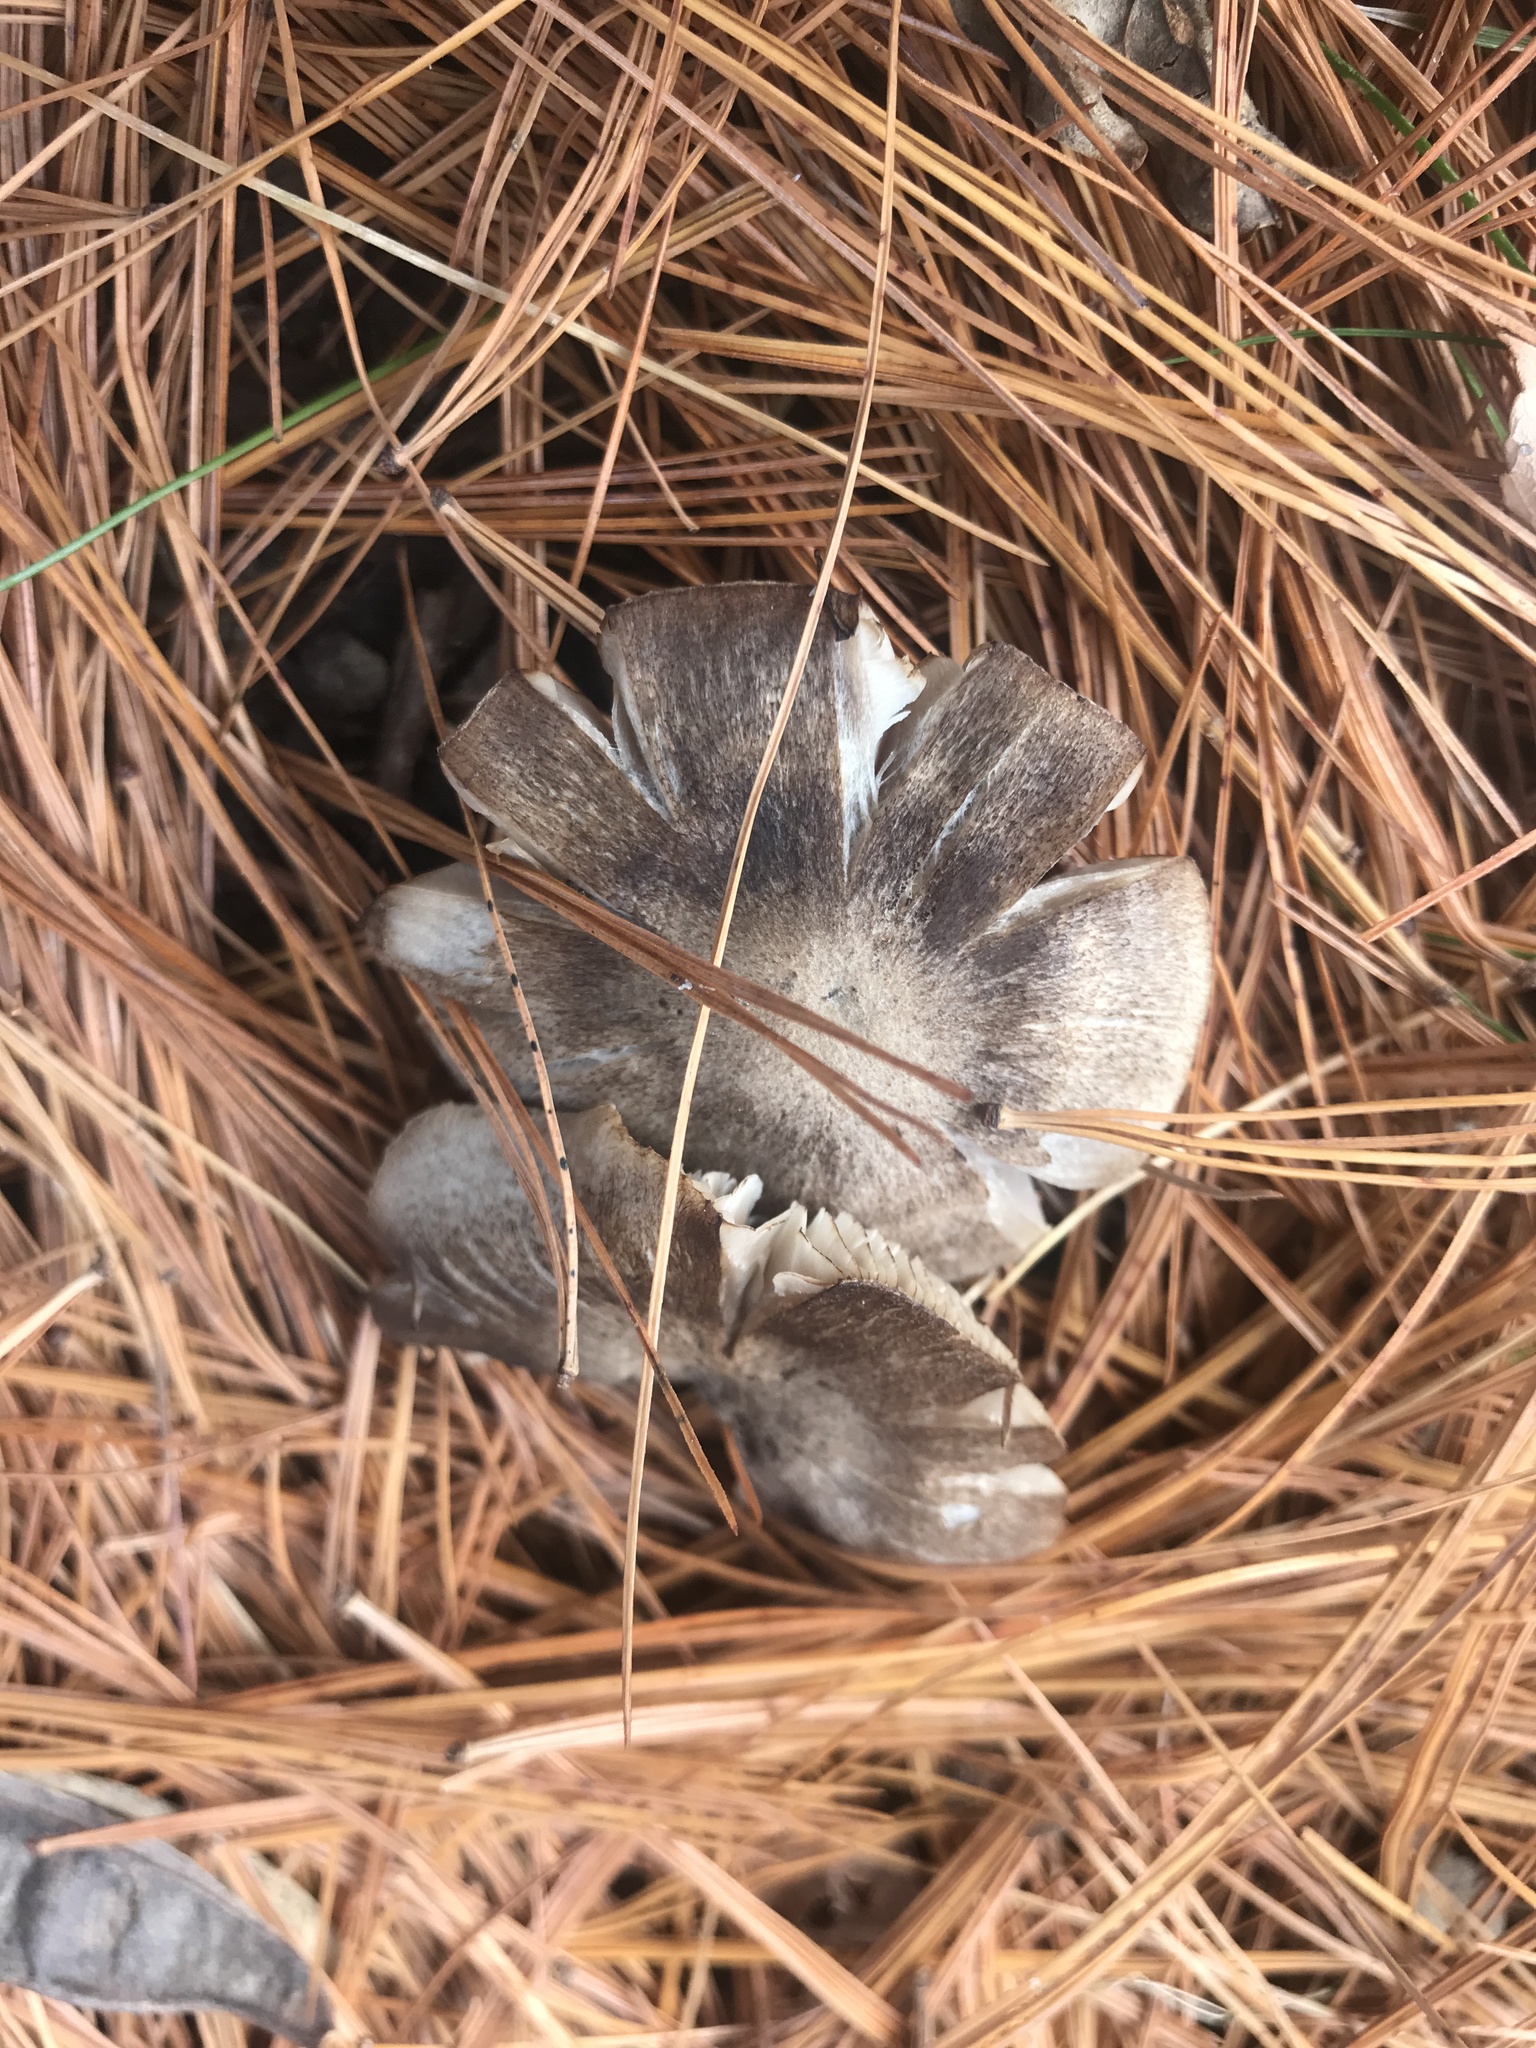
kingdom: Fungi
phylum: Basidiomycota
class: Agaricomycetes
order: Agaricales
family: Tricholomataceae
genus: Tricholoma
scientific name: Tricholoma terreum
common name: Grey knight
